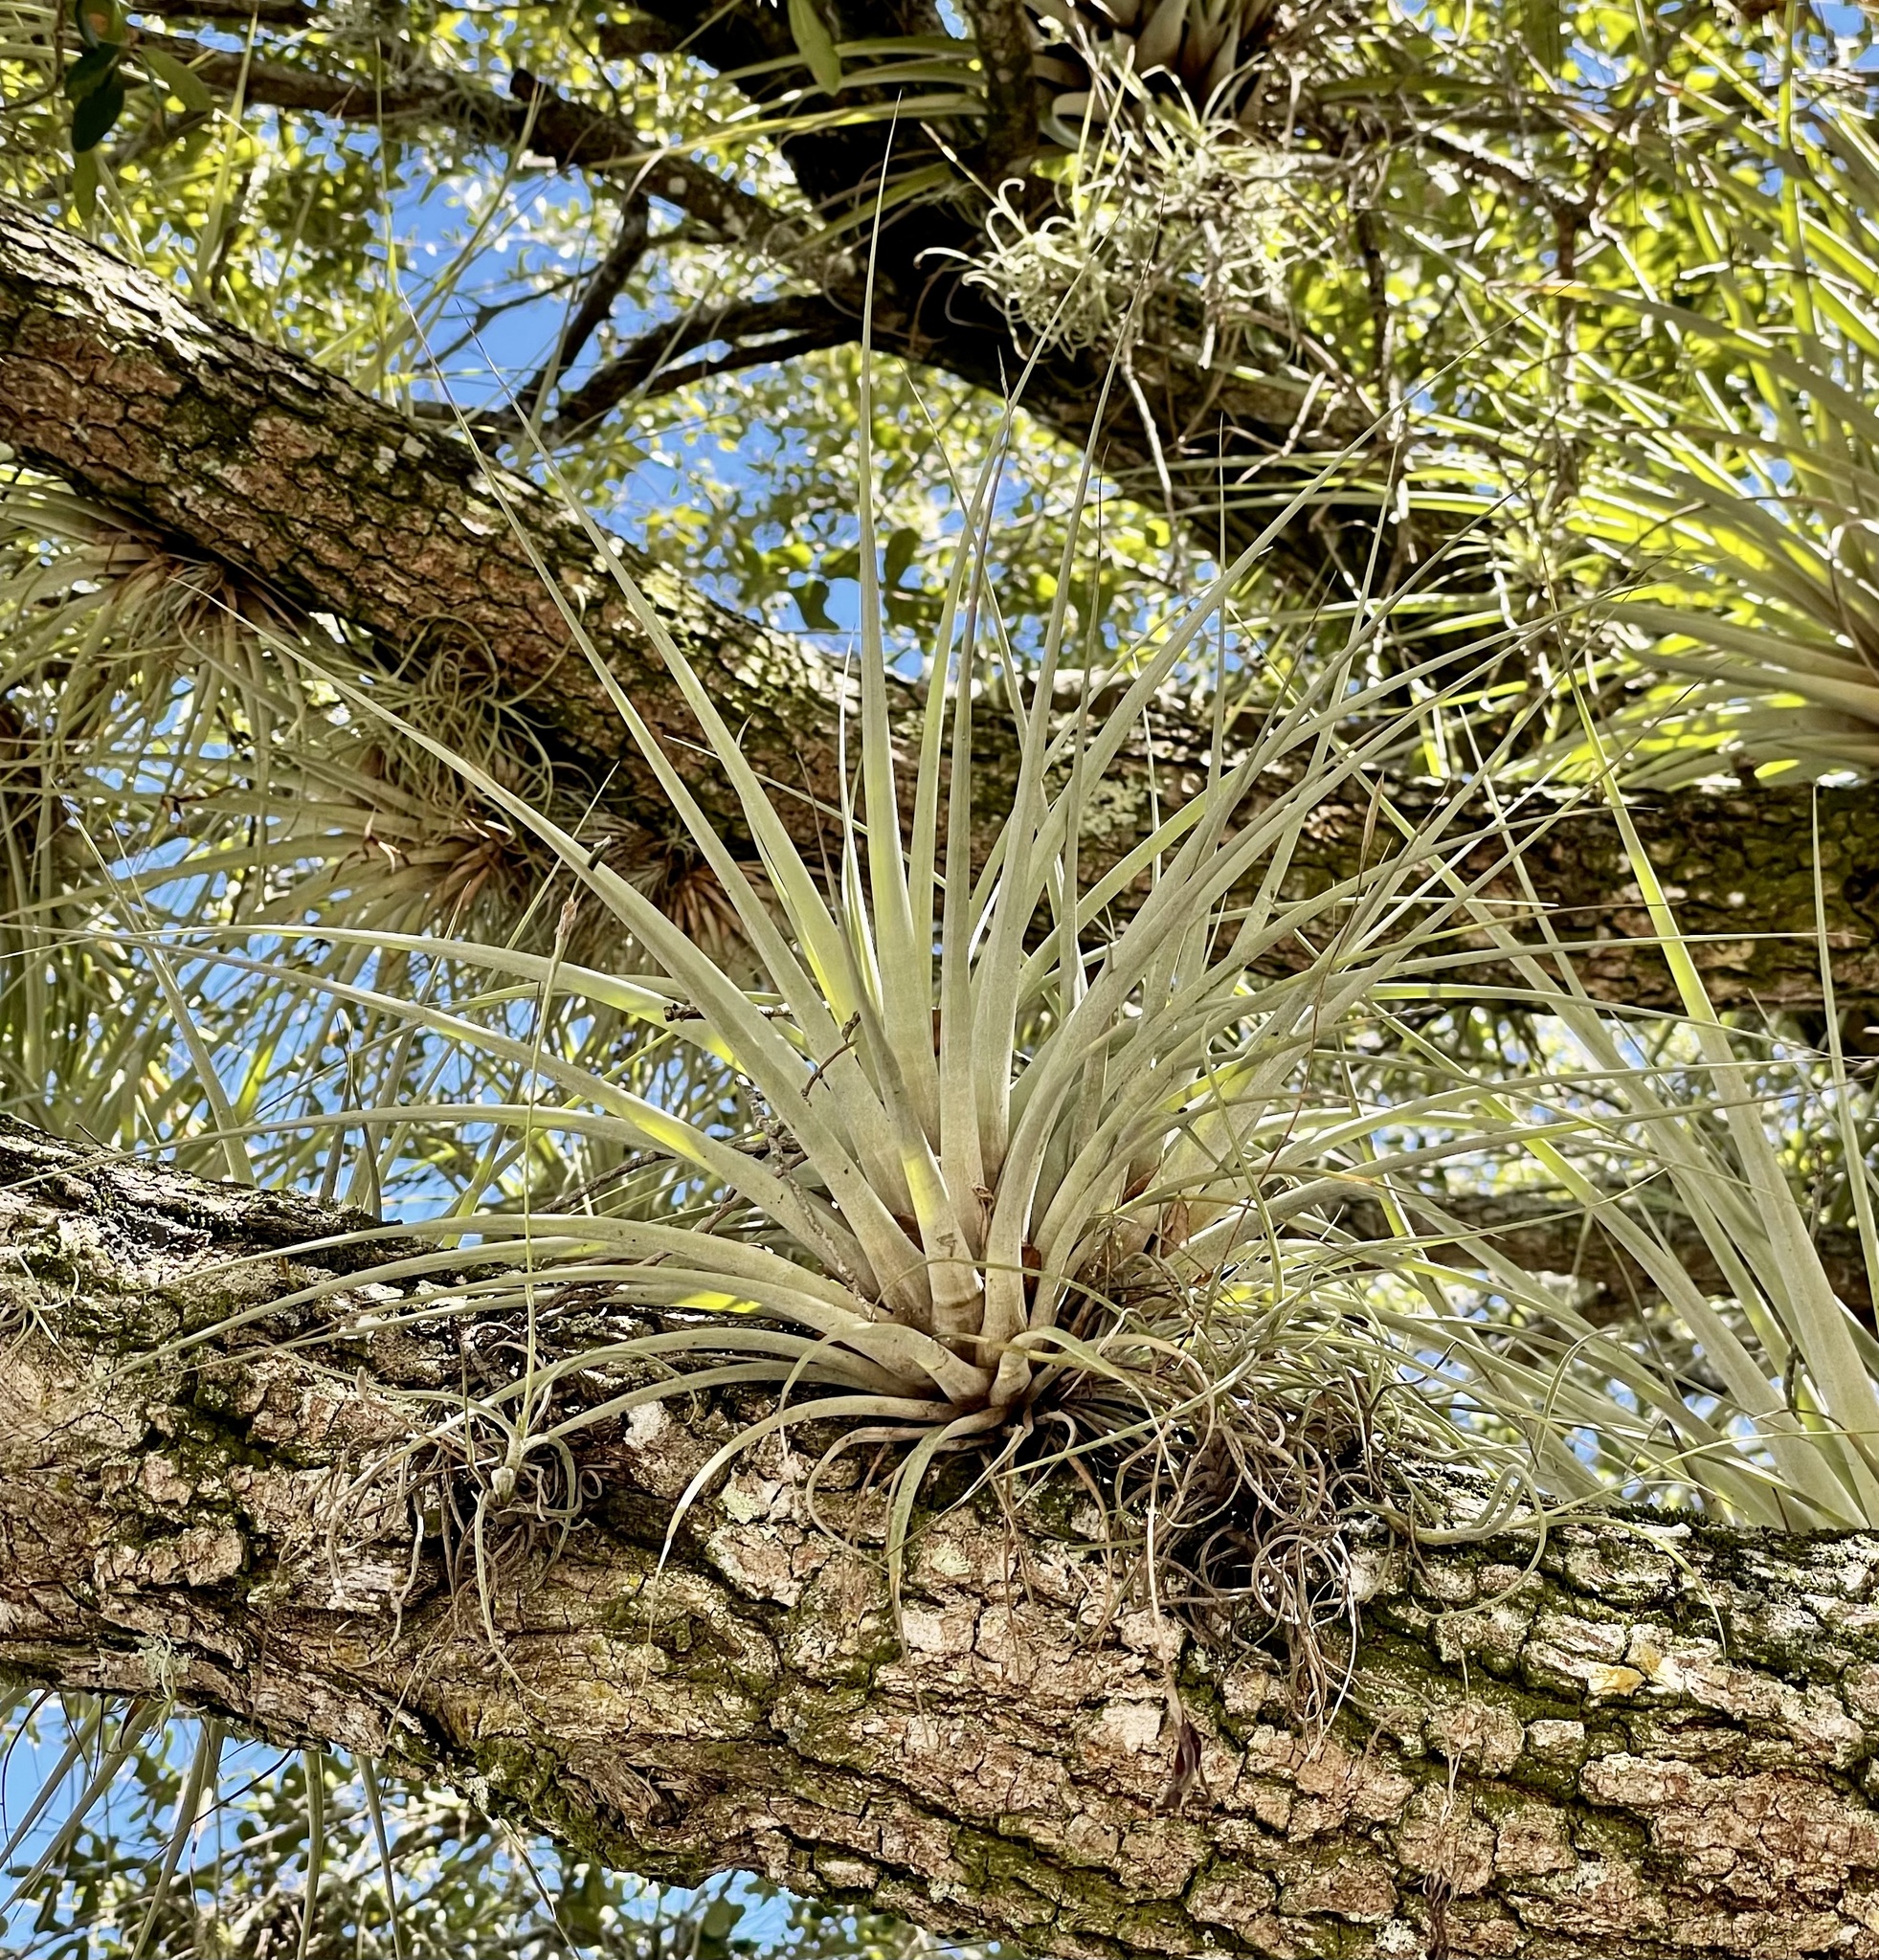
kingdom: Plantae
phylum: Tracheophyta
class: Liliopsida
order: Poales
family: Bromeliaceae
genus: Tillandsia
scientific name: Tillandsia fasciculata
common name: Giant airplant
